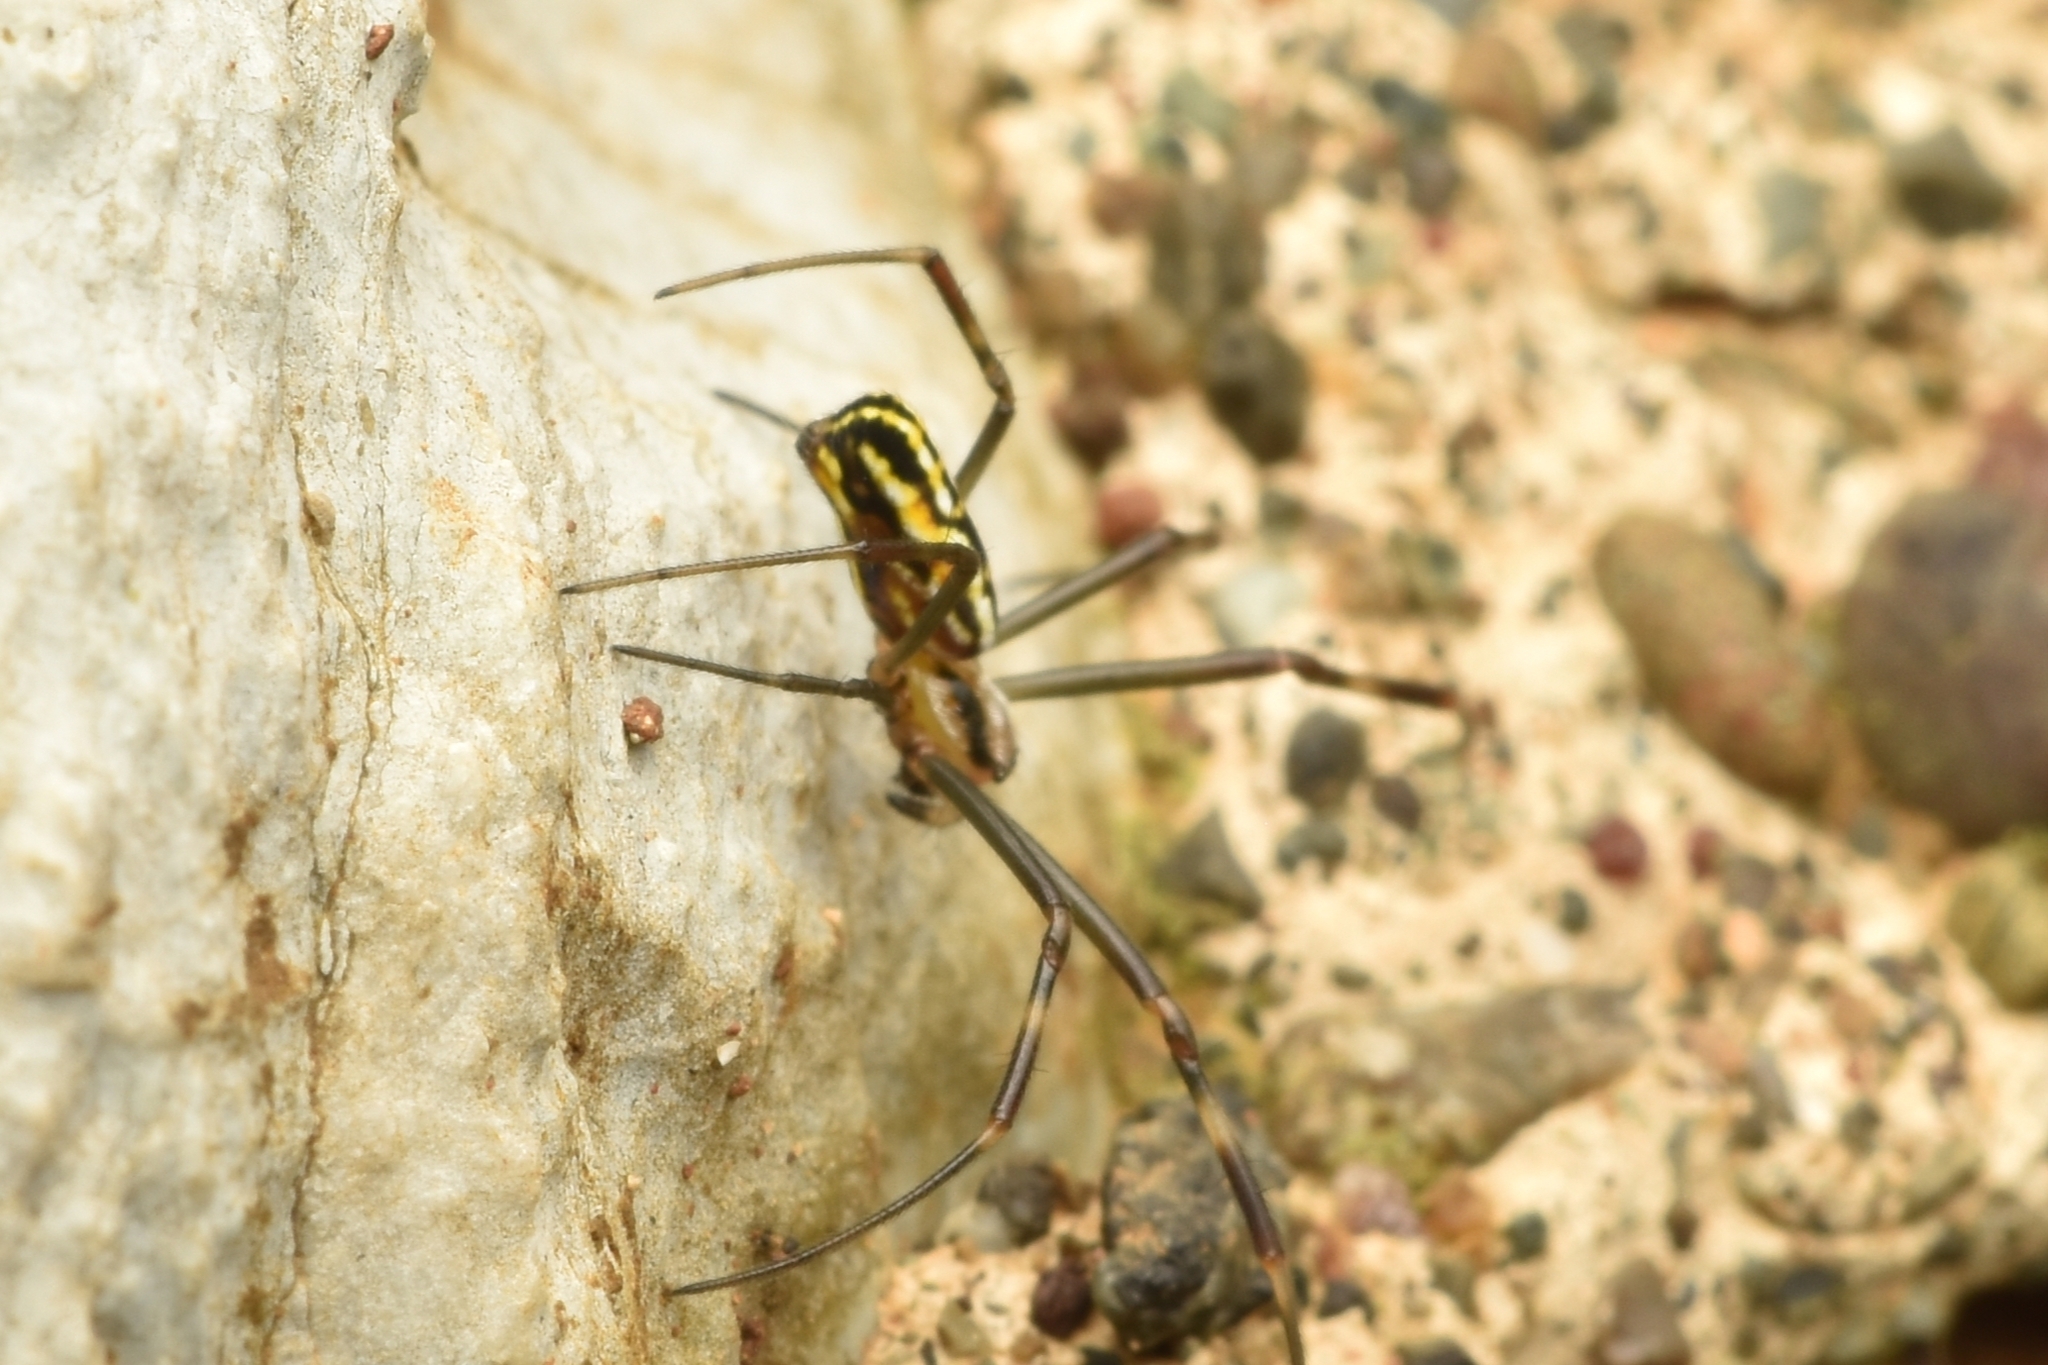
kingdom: Animalia
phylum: Arthropoda
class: Arachnida
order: Araneae
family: Araneidae
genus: Trichonephila
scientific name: Trichonephila clavipes
